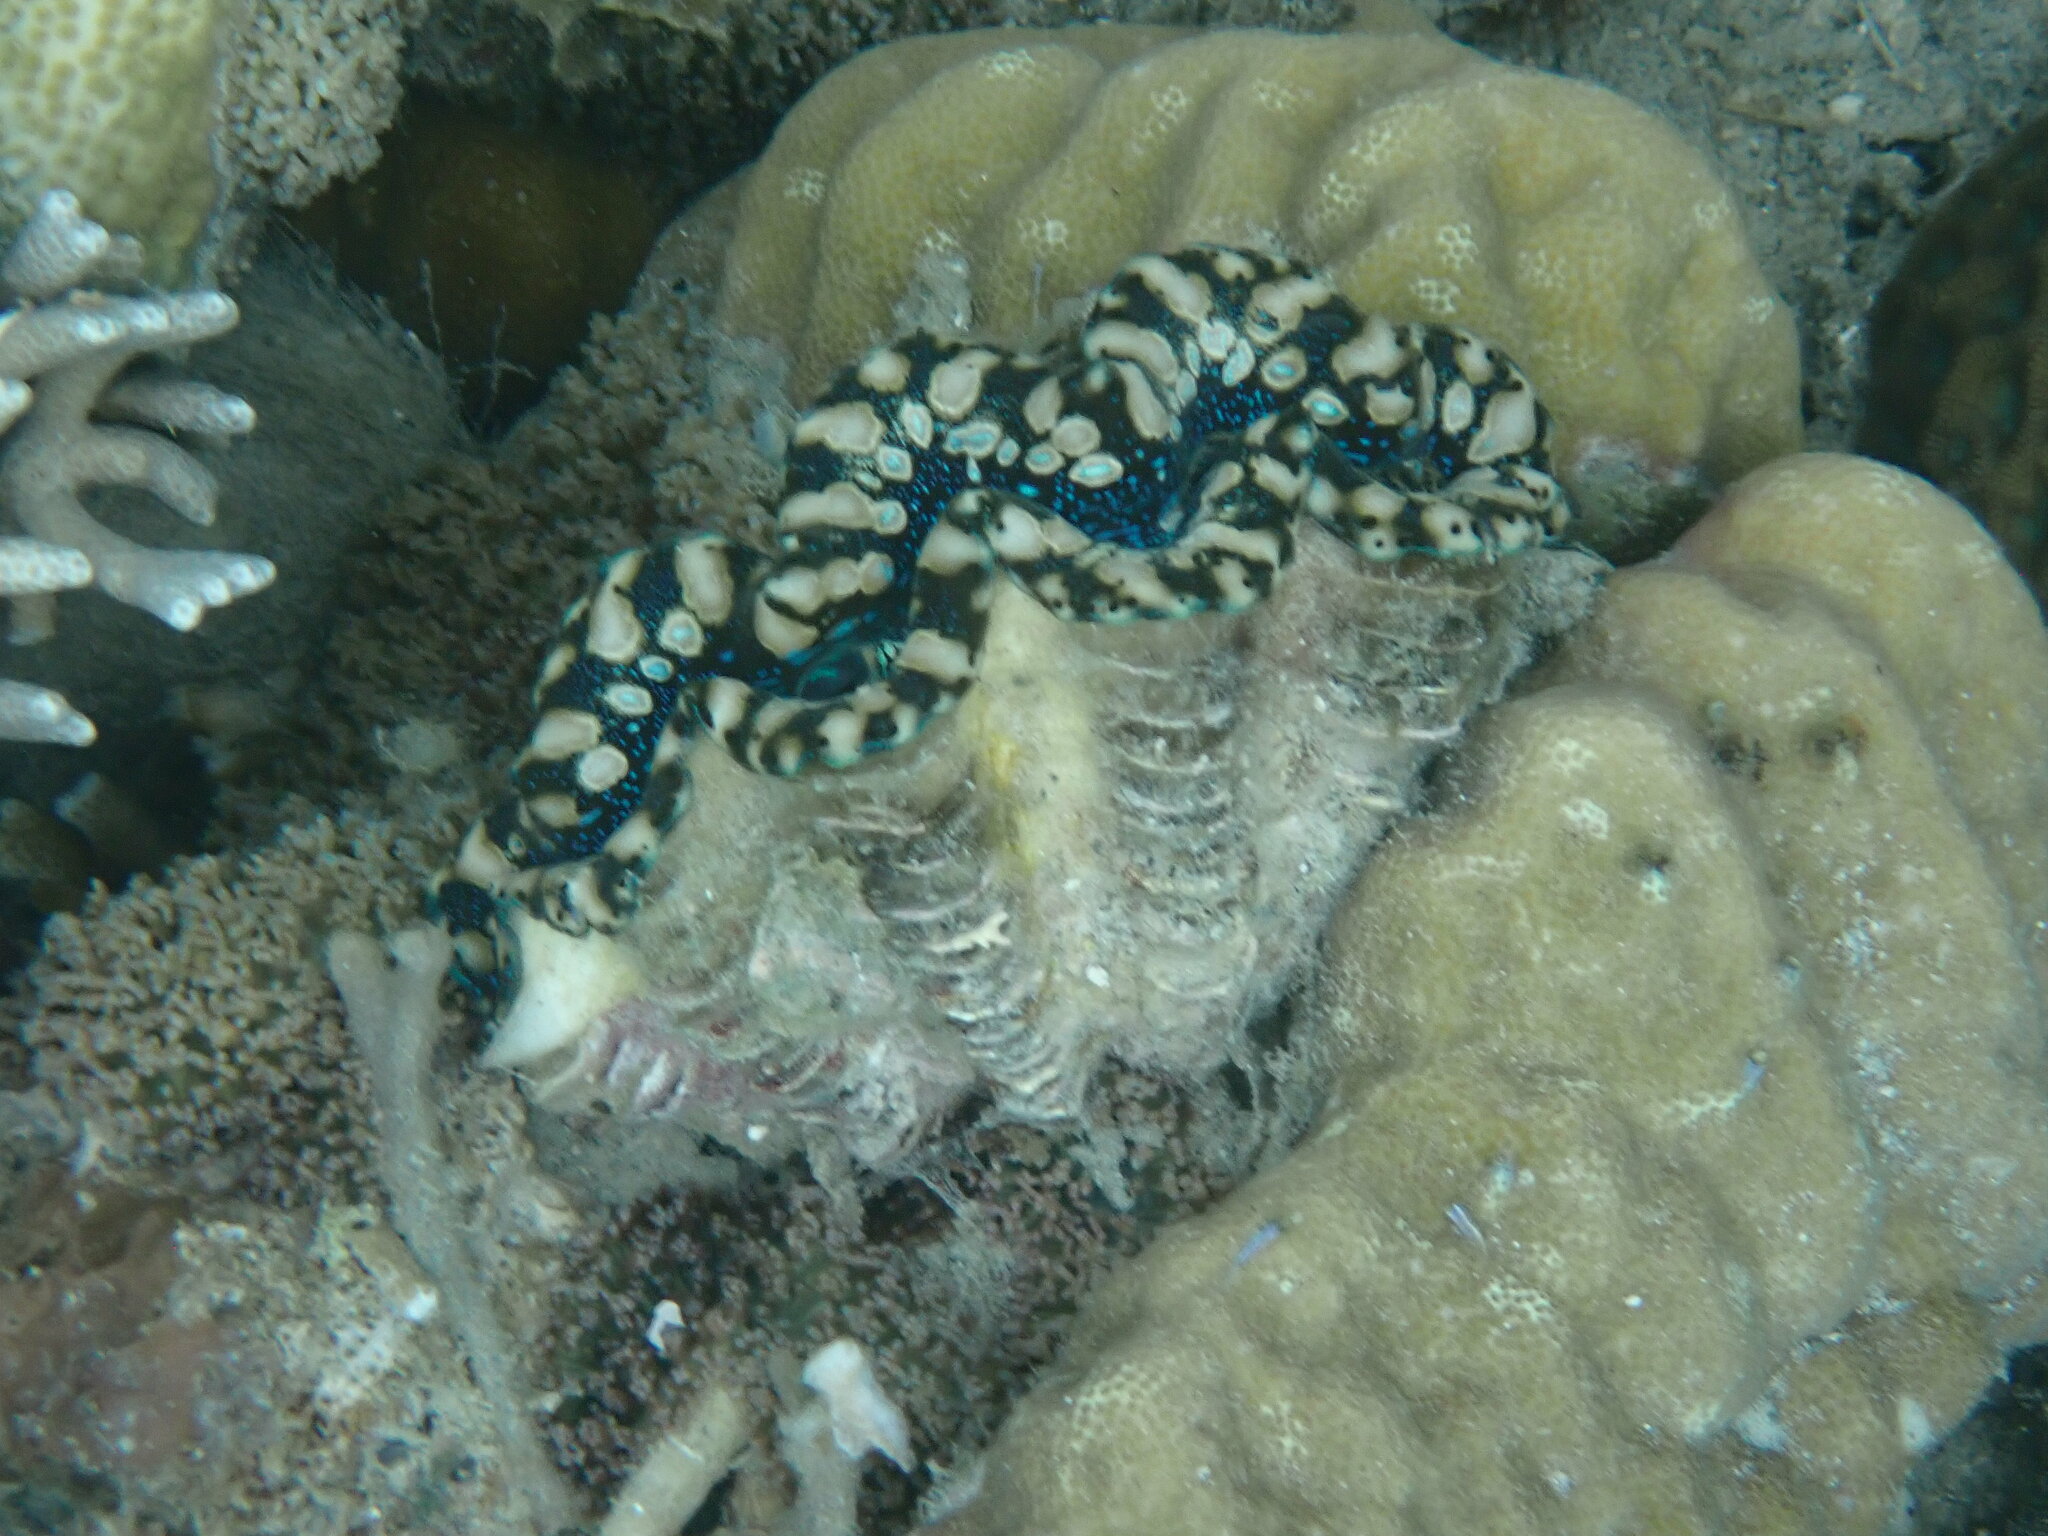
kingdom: Animalia
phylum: Mollusca
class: Bivalvia
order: Cardiida
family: Cardiidae
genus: Tridacna
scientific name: Tridacna maxima
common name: Small giant clam
